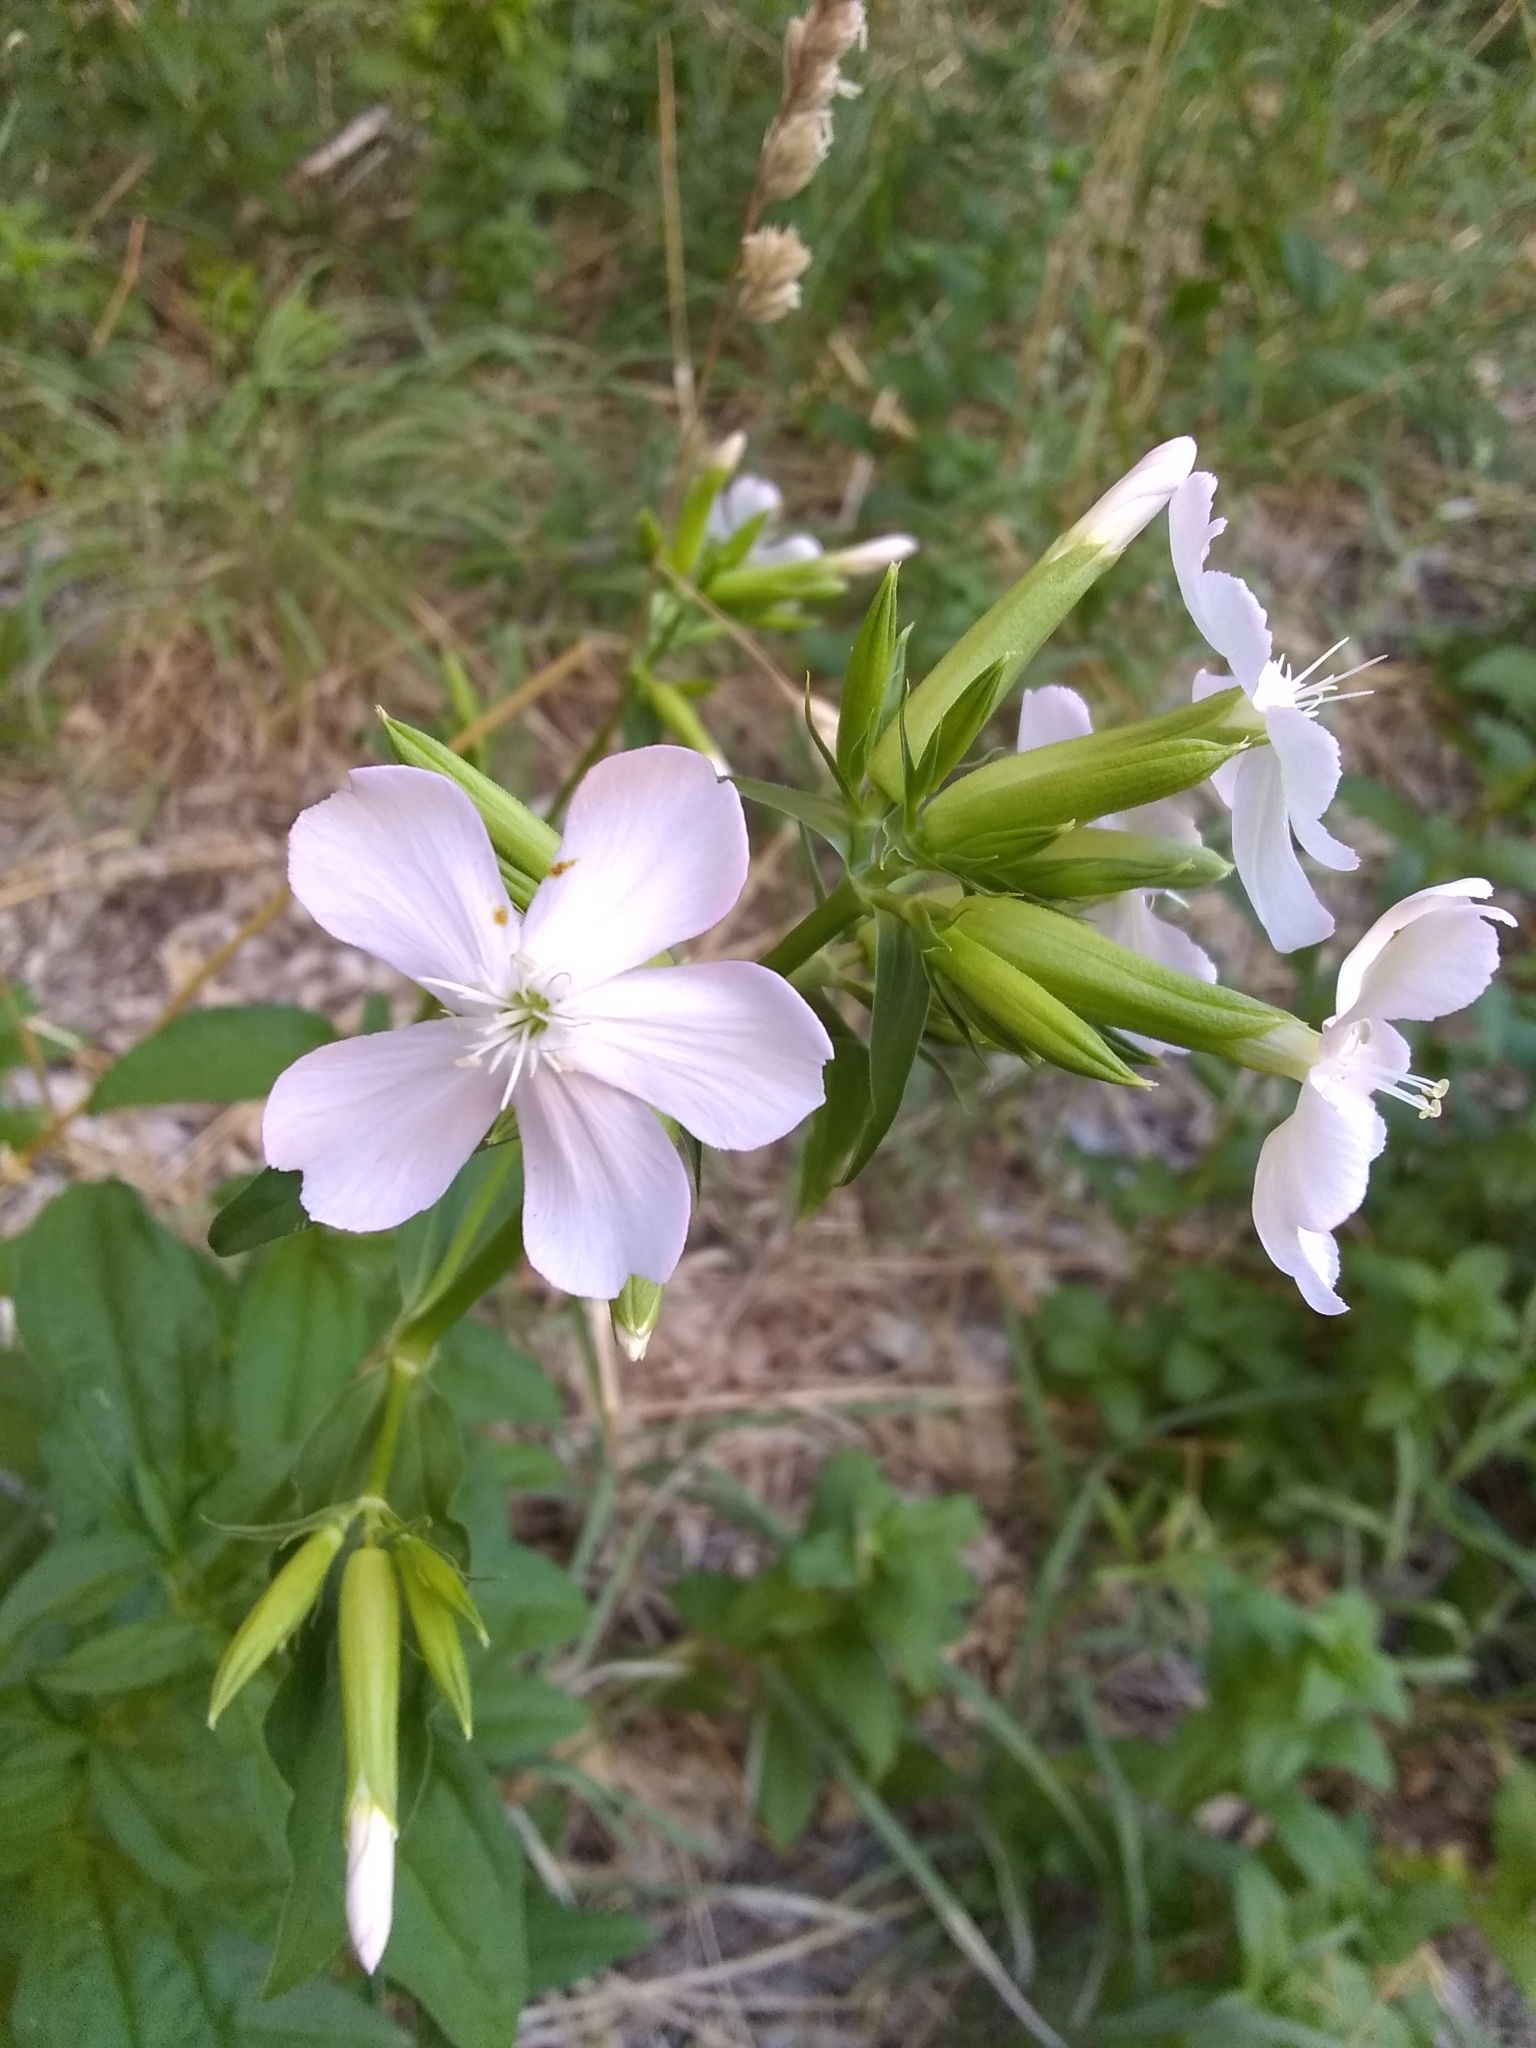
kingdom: Plantae
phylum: Tracheophyta
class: Magnoliopsida
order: Caryophyllales
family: Caryophyllaceae
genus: Saponaria
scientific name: Saponaria officinalis
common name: Soapwort
